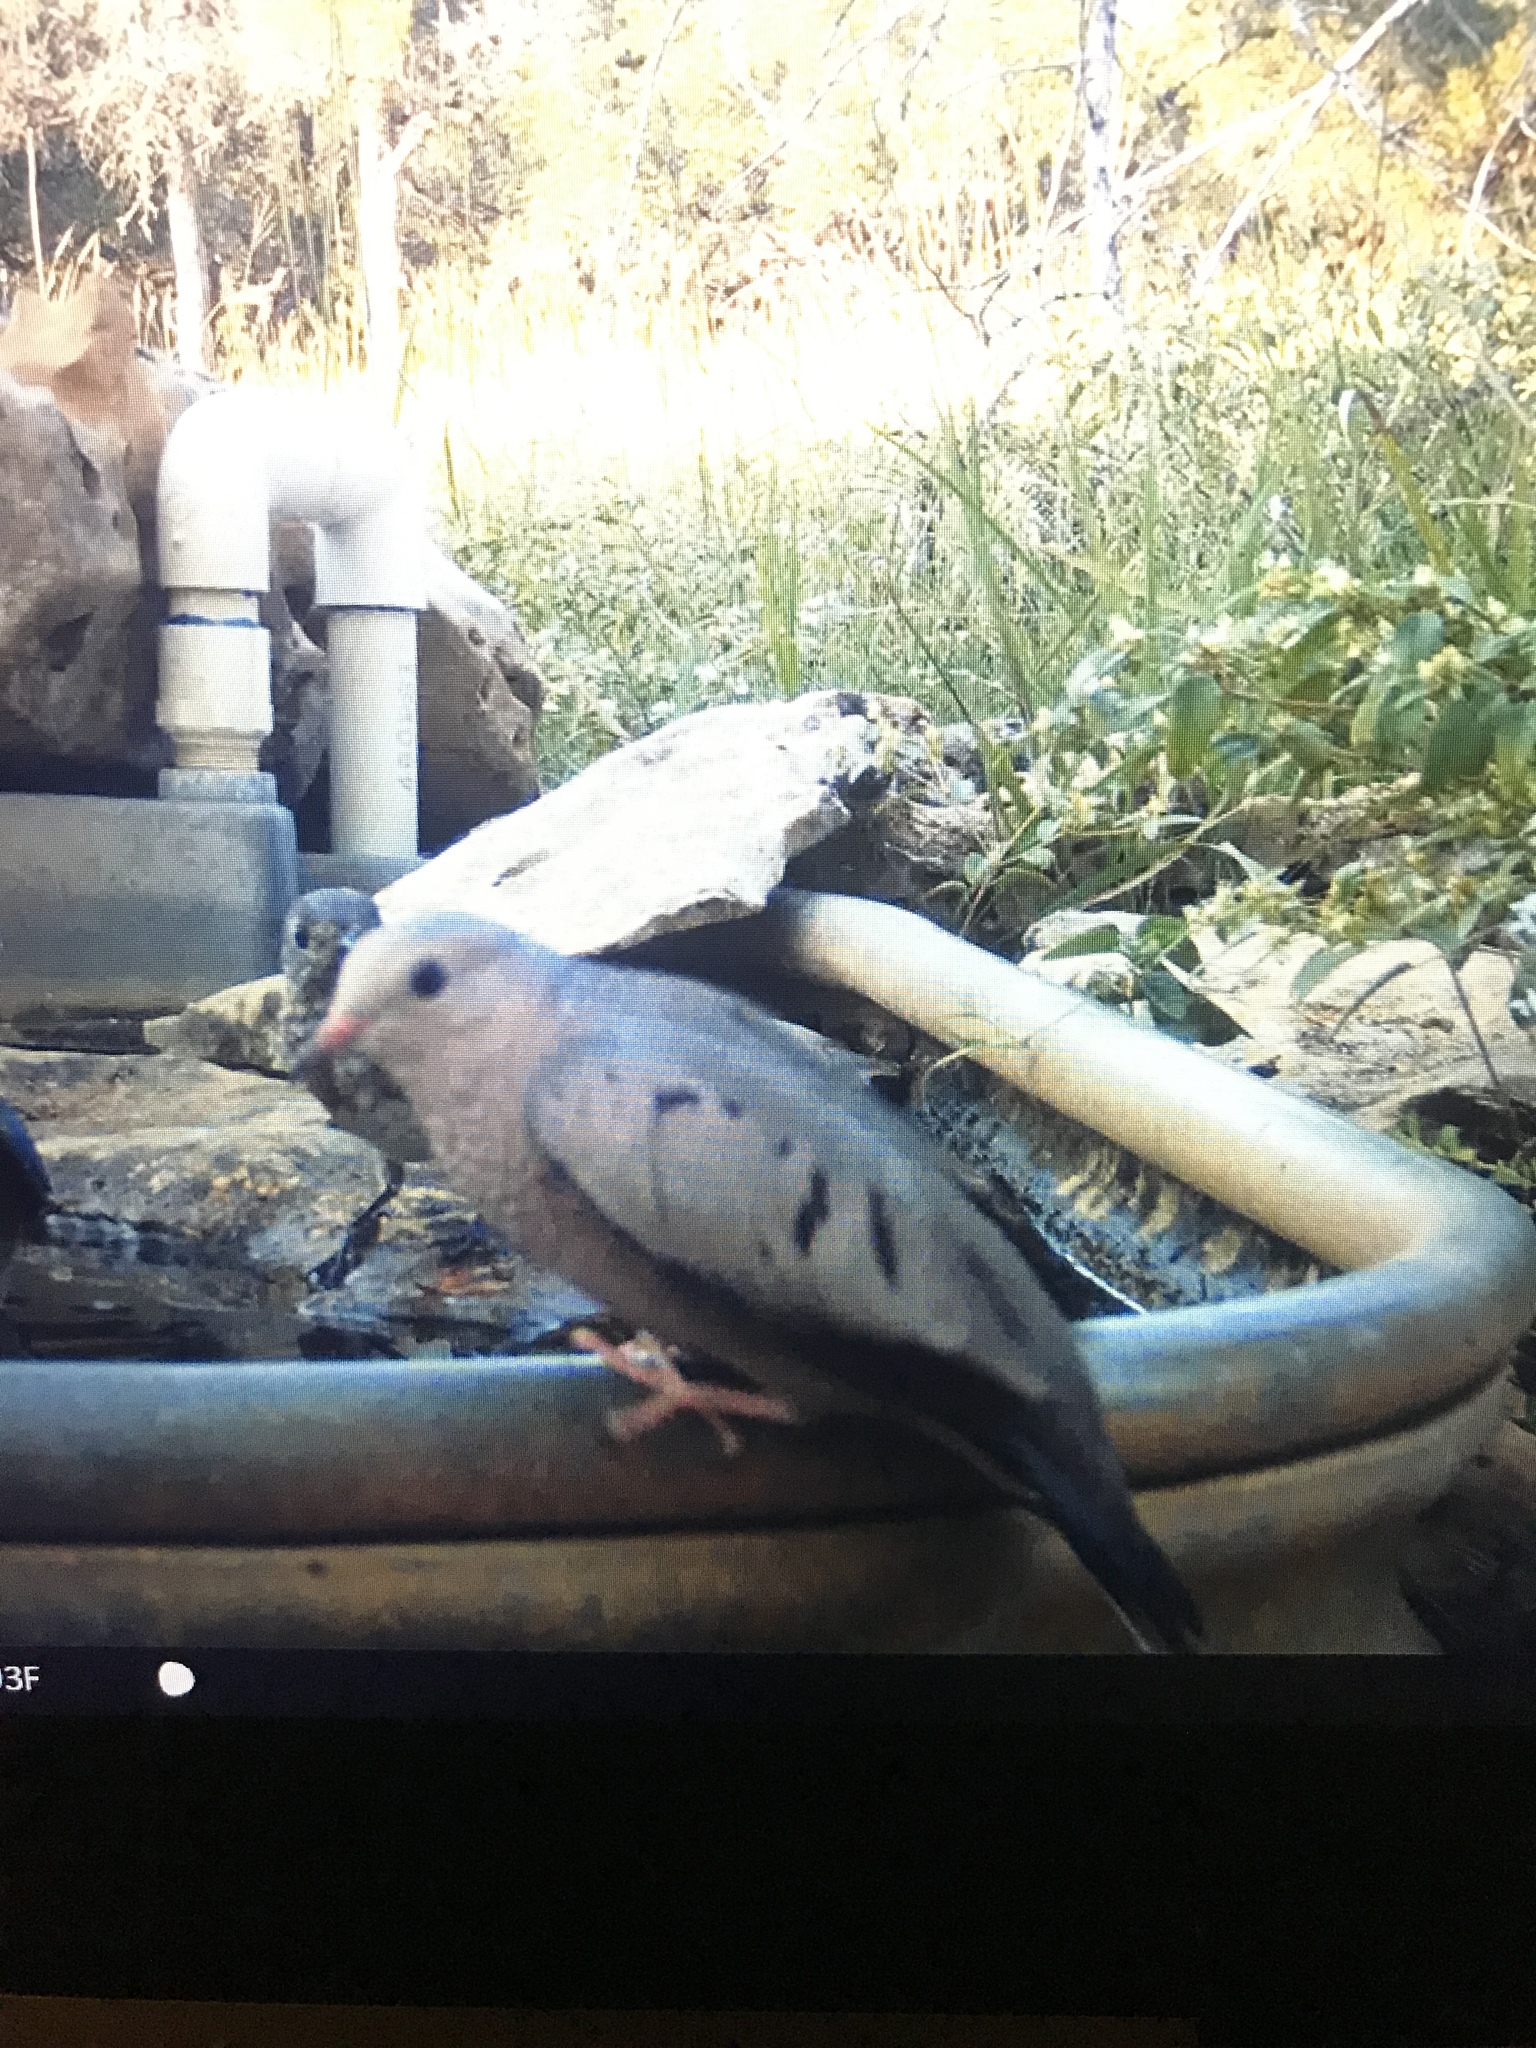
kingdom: Animalia
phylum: Chordata
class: Aves
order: Columbiformes
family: Columbidae
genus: Columbina
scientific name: Columbina passerina
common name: Common ground-dove
